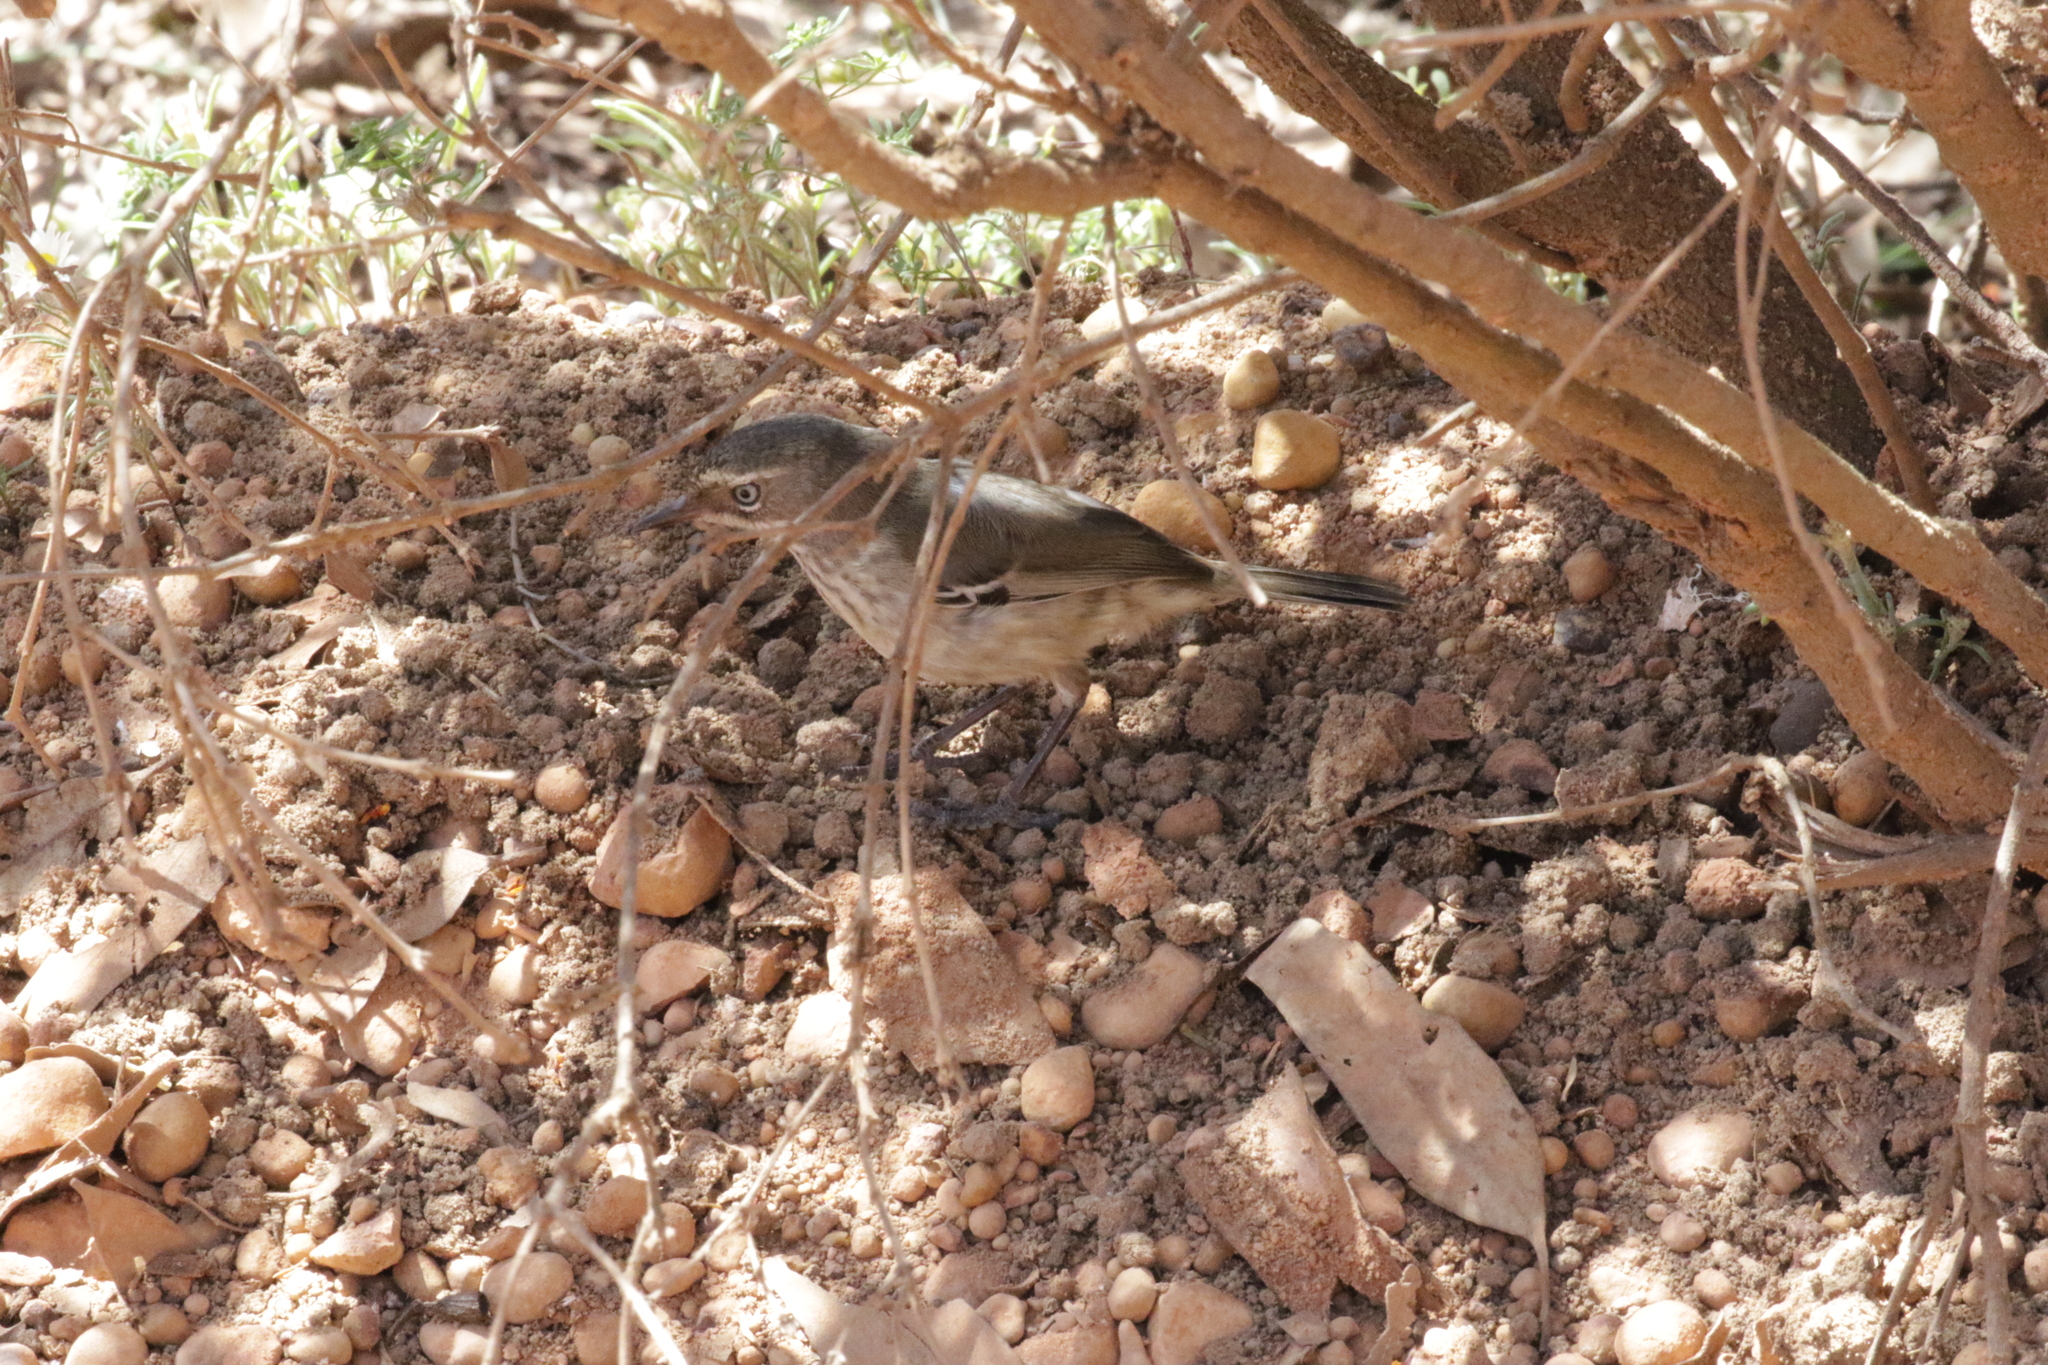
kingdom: Animalia
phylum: Chordata
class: Aves
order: Passeriformes
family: Acanthizidae
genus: Sericornis
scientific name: Sericornis maculatus
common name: Spotted scrubwren
